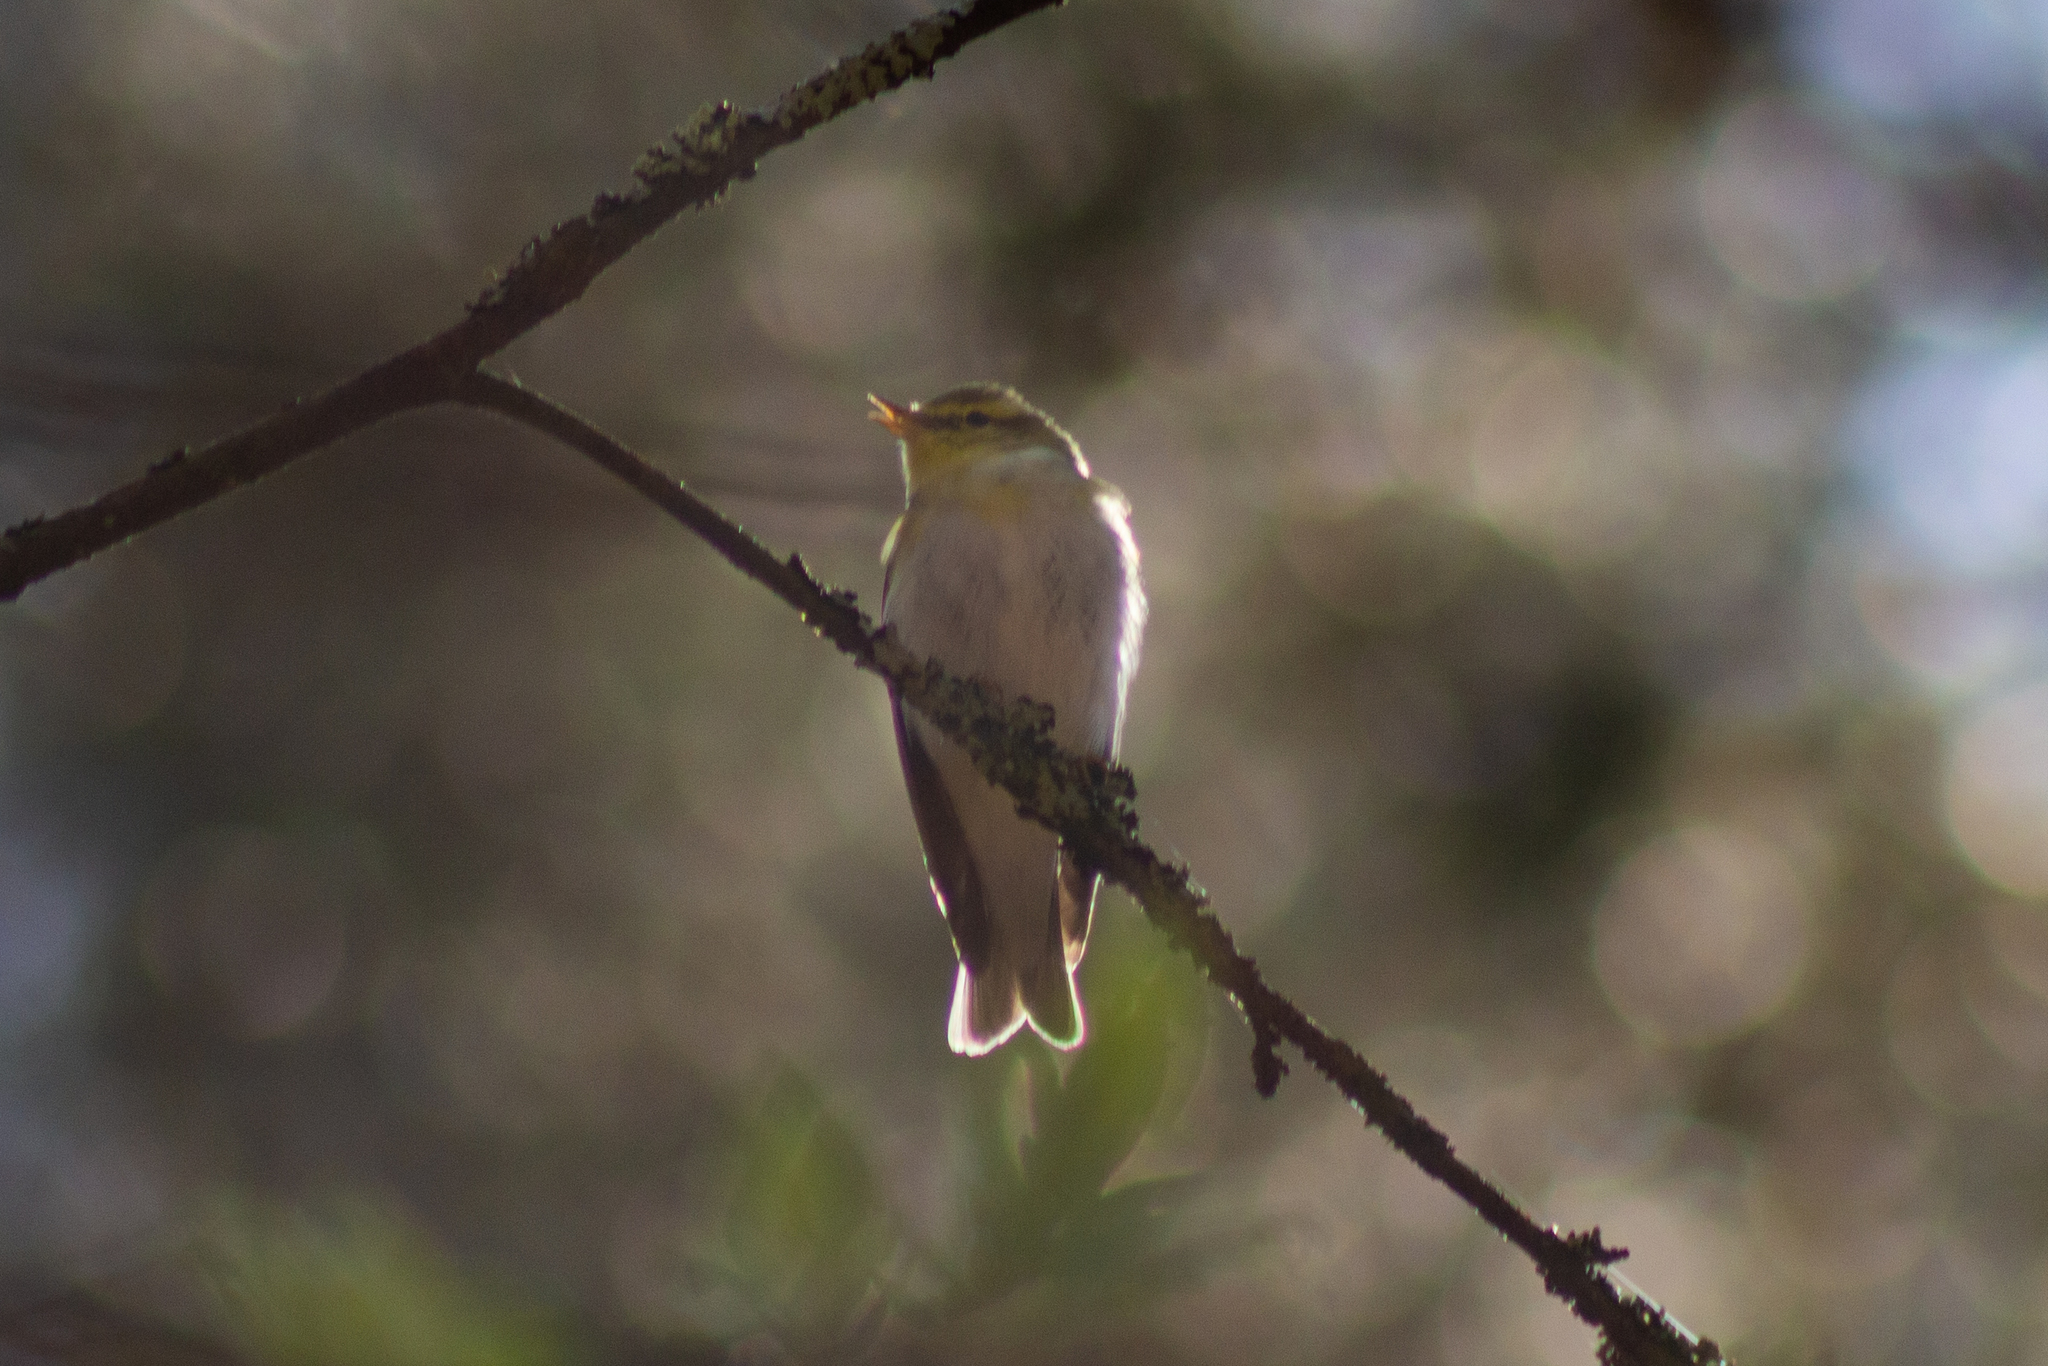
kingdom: Animalia
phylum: Chordata
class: Aves
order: Passeriformes
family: Phylloscopidae
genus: Phylloscopus
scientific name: Phylloscopus sibillatrix
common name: Wood warbler
